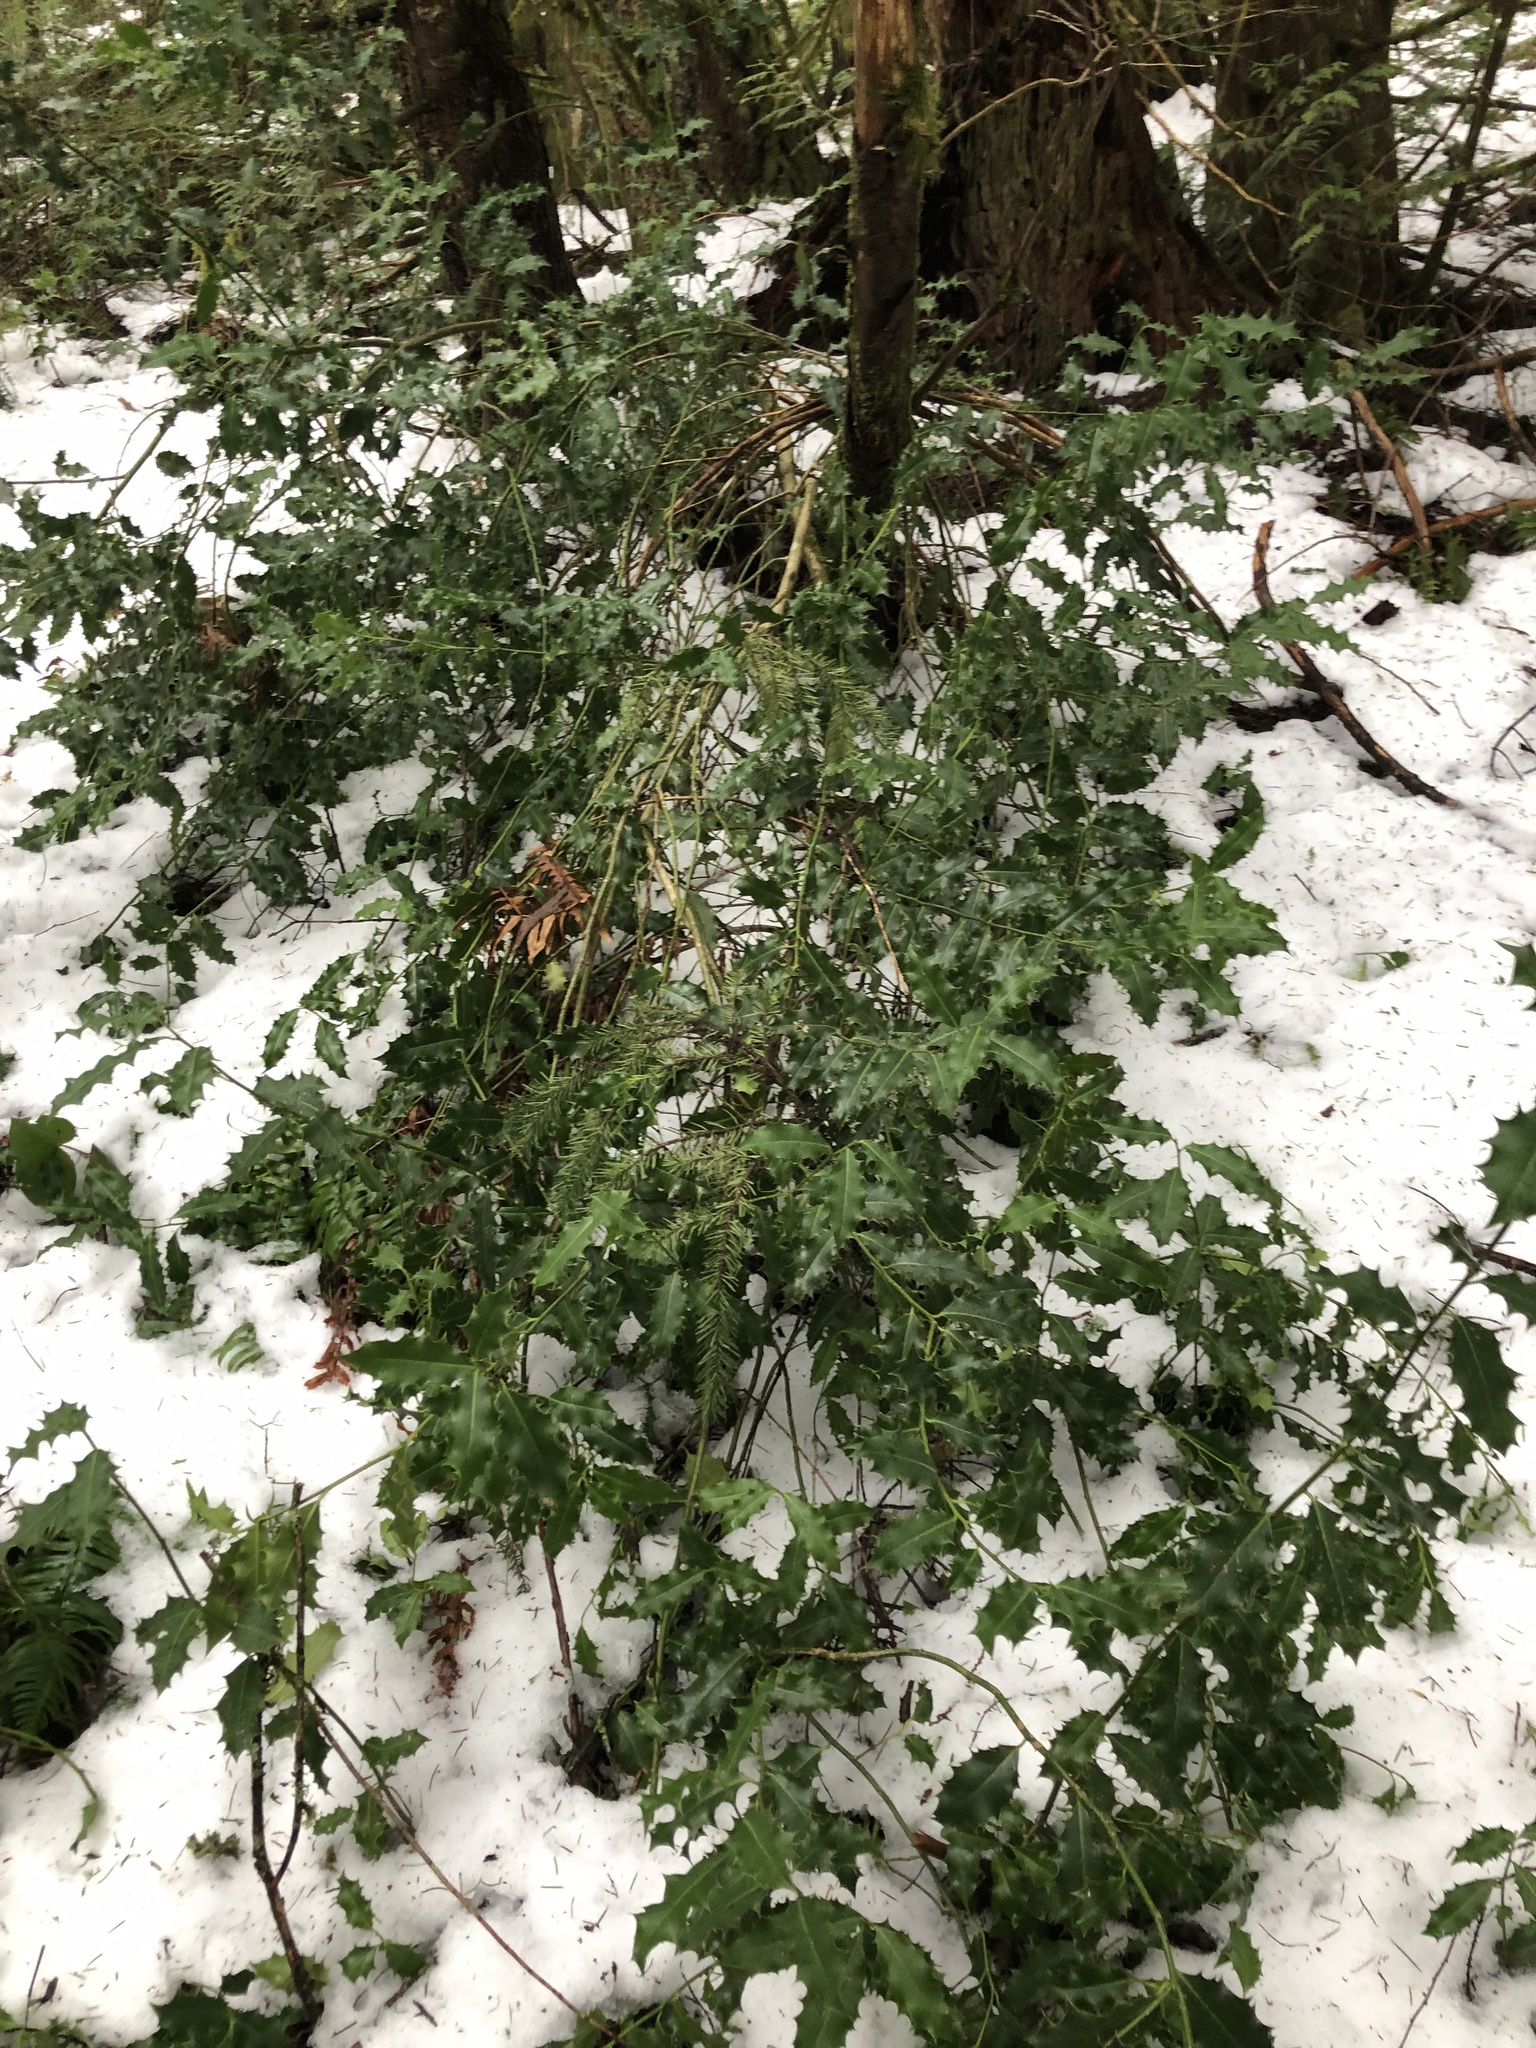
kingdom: Plantae
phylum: Tracheophyta
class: Magnoliopsida
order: Aquifoliales
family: Aquifoliaceae
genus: Ilex
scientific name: Ilex aquifolium
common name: English holly
